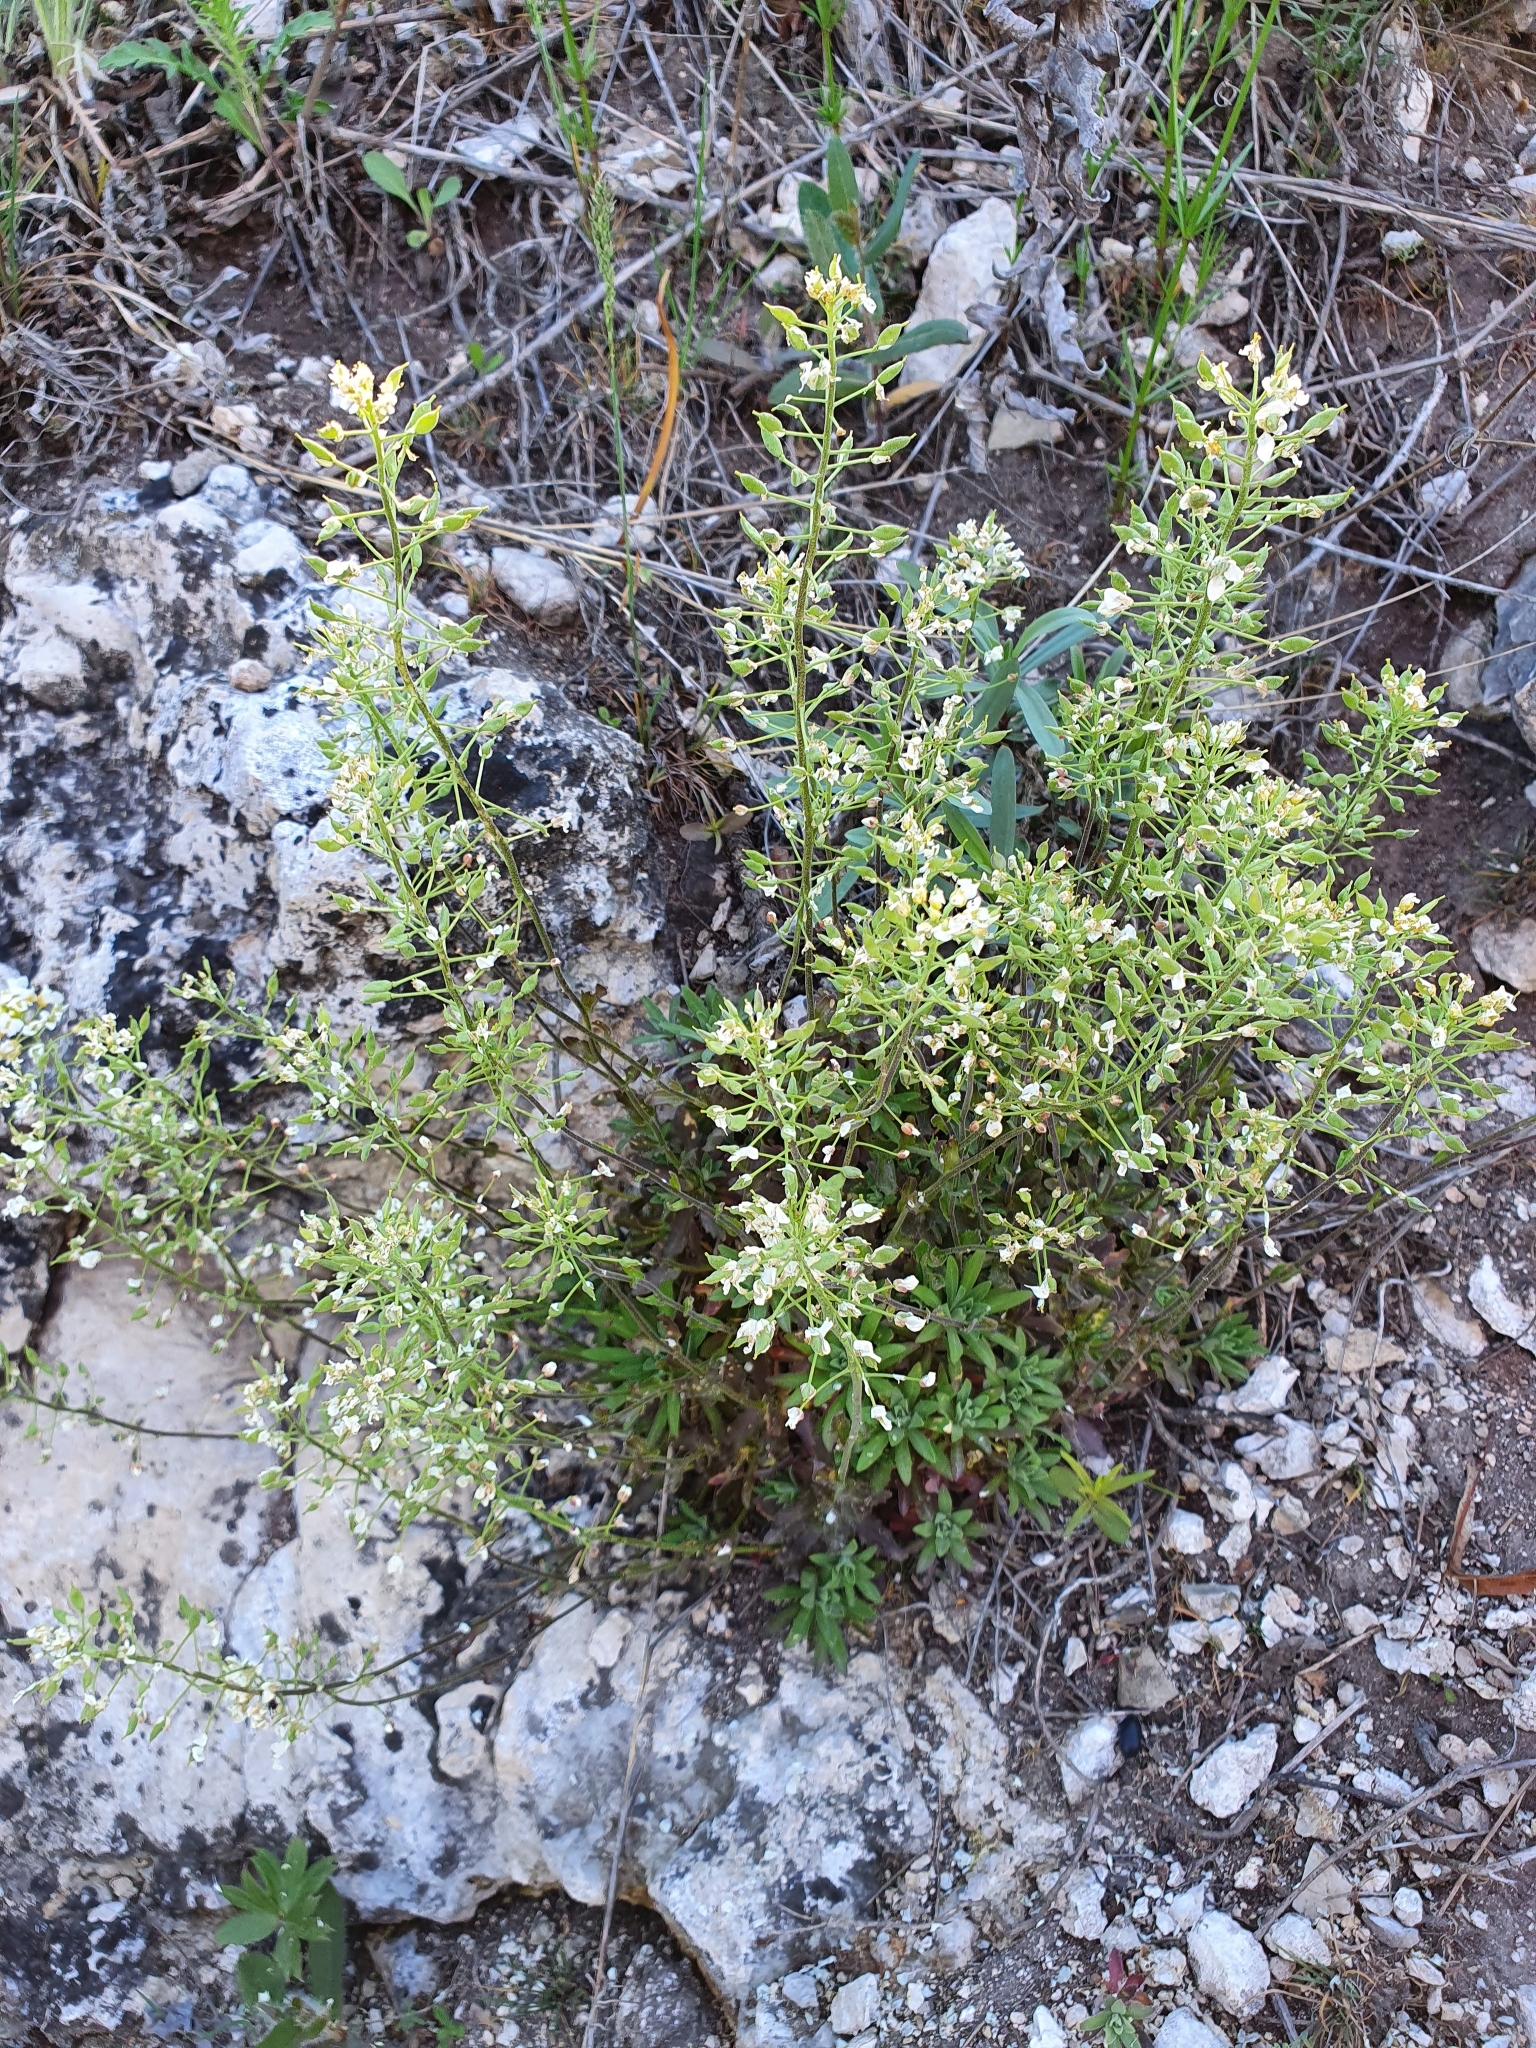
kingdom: Plantae
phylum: Tracheophyta
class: Magnoliopsida
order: Brassicales
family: Brassicaceae
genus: Draba
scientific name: Draba hyperborea
